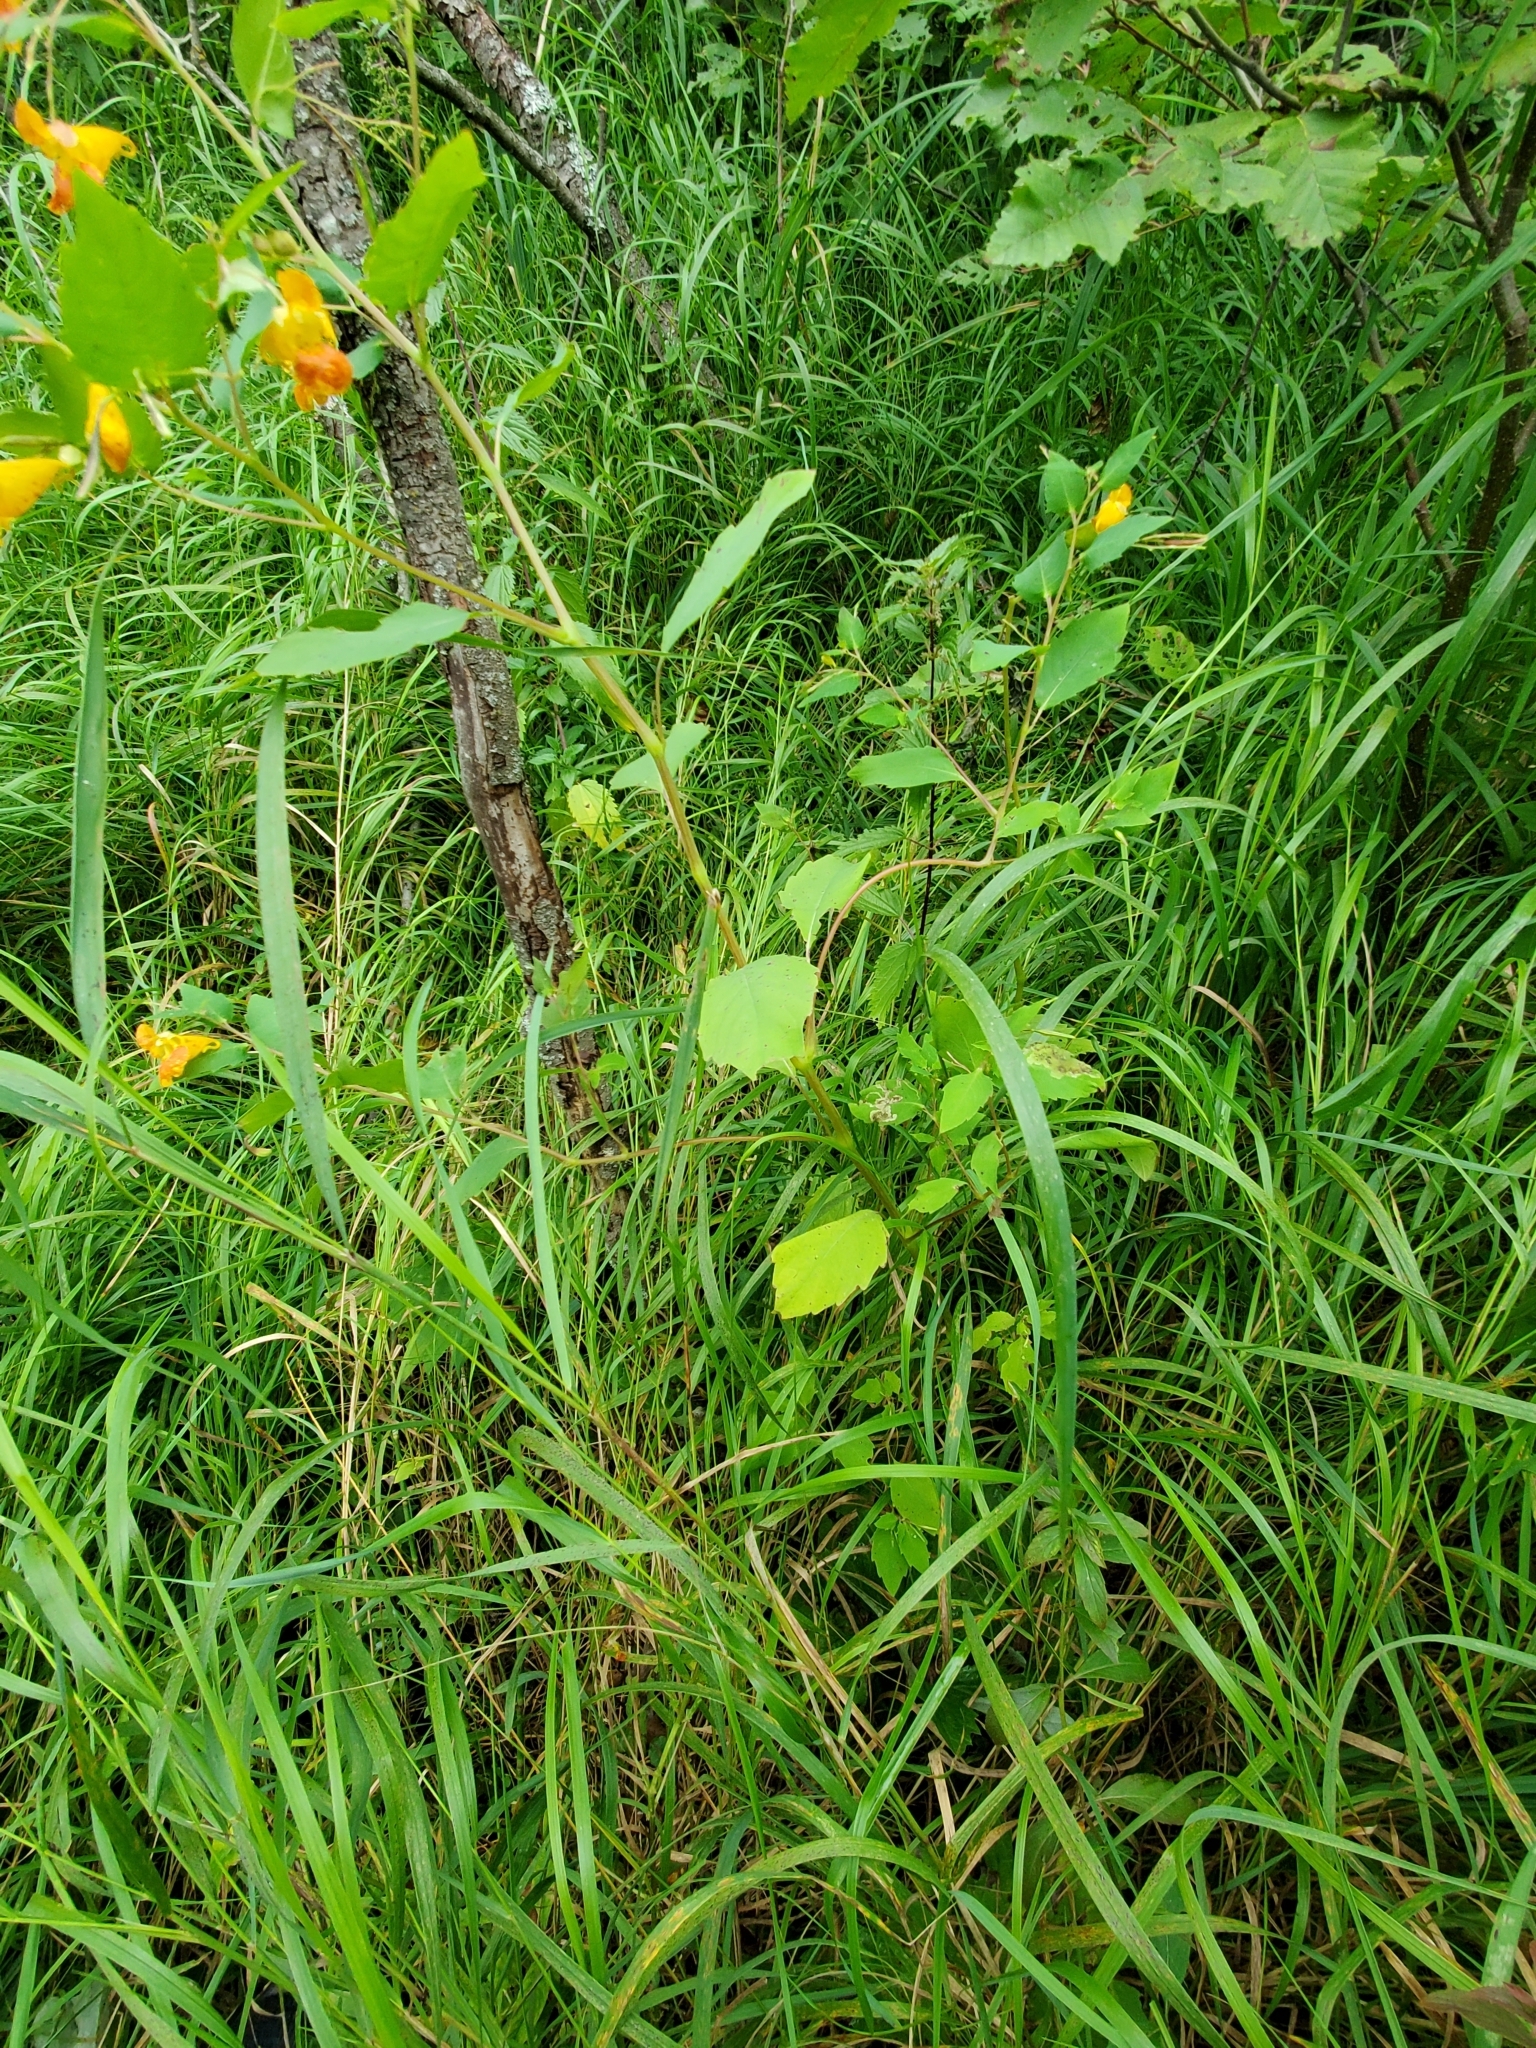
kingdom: Plantae
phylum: Tracheophyta
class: Magnoliopsida
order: Ericales
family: Balsaminaceae
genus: Impatiens
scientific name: Impatiens capensis
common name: Orange balsam
